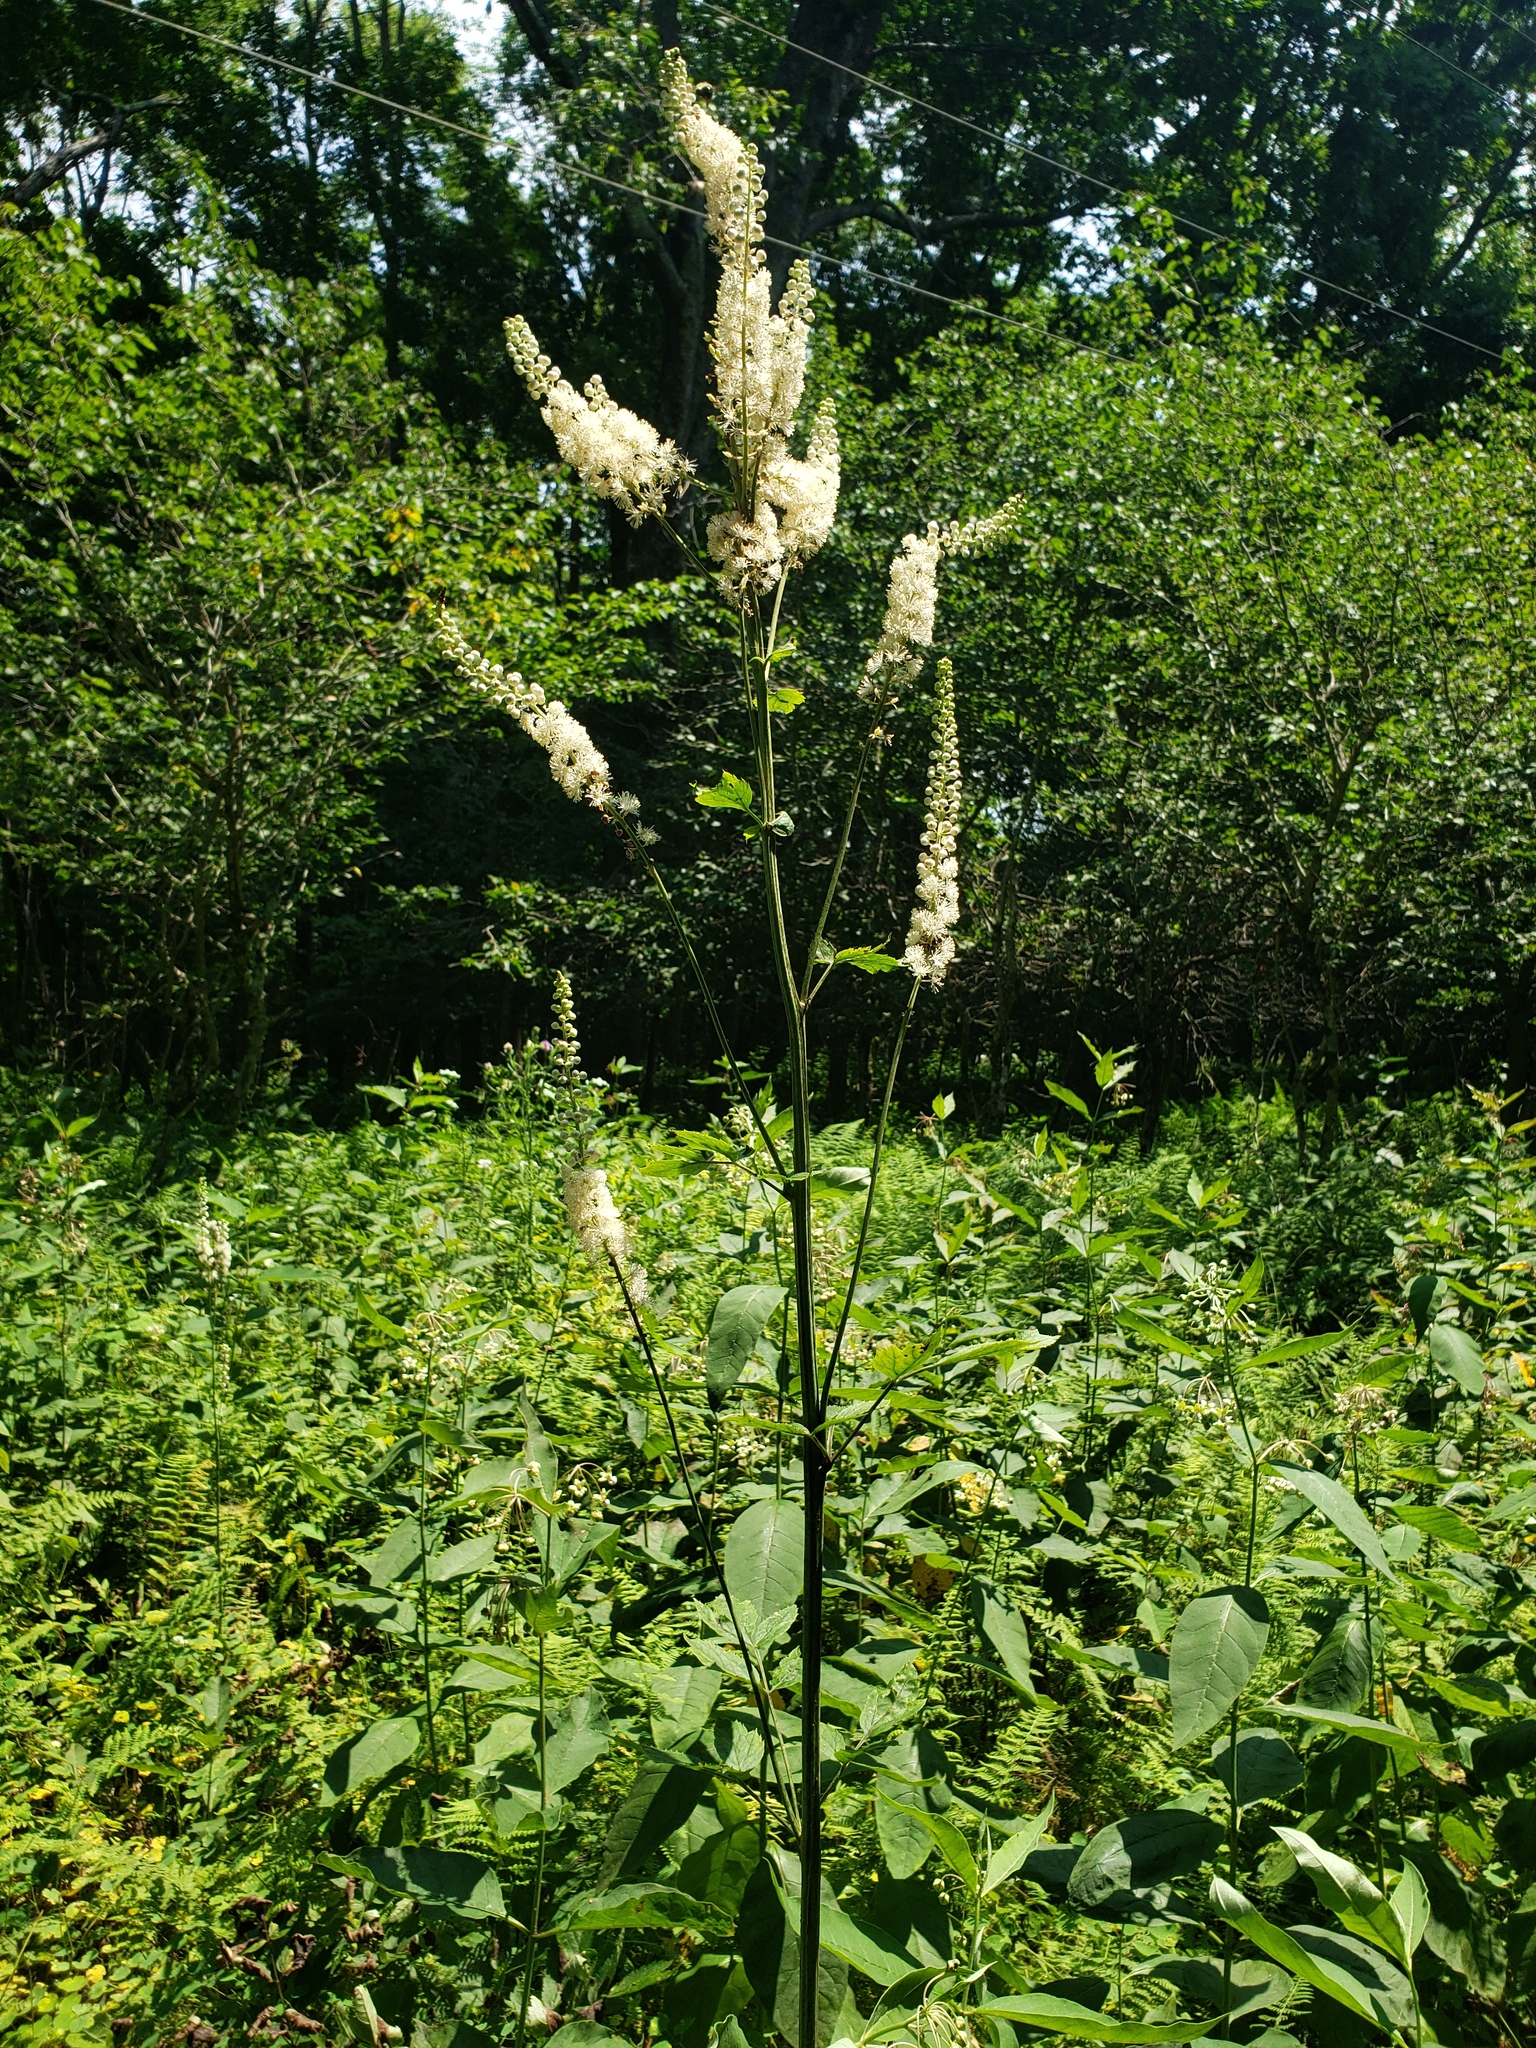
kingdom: Plantae
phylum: Tracheophyta
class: Magnoliopsida
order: Ranunculales
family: Ranunculaceae
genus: Actaea
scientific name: Actaea racemosa
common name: Black cohosh
